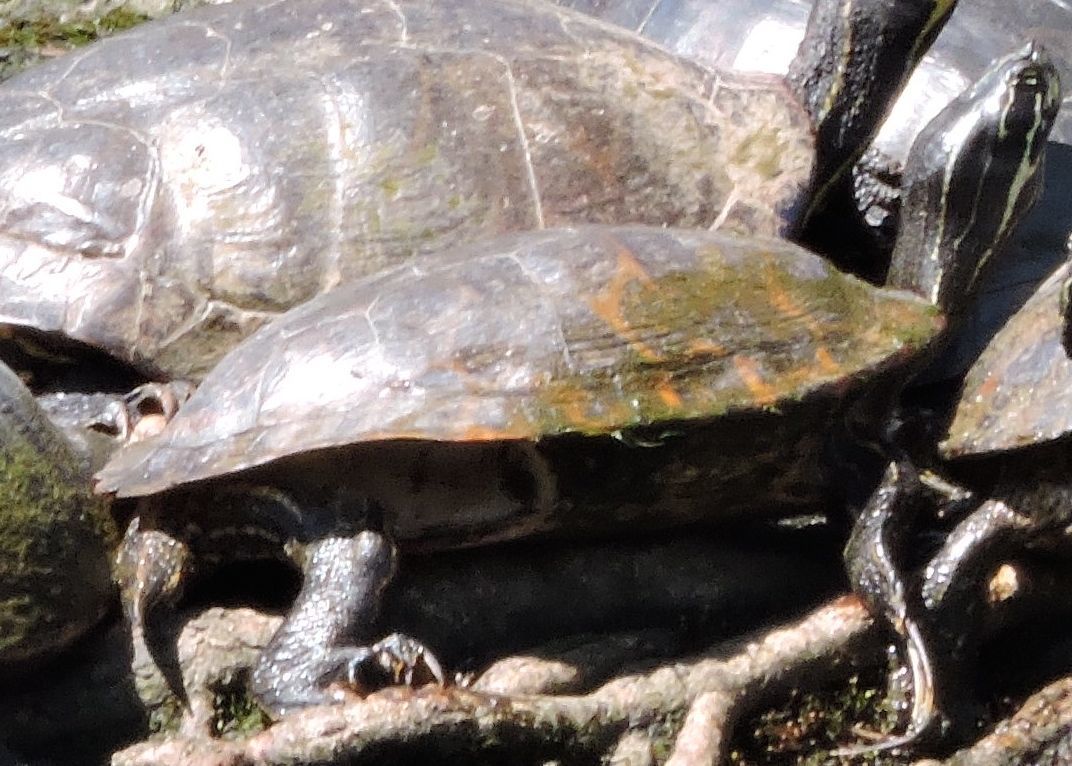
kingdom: Animalia
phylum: Chordata
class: Testudines
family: Emydidae
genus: Pseudemys
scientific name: Pseudemys concinna
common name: Eastern river cooter
